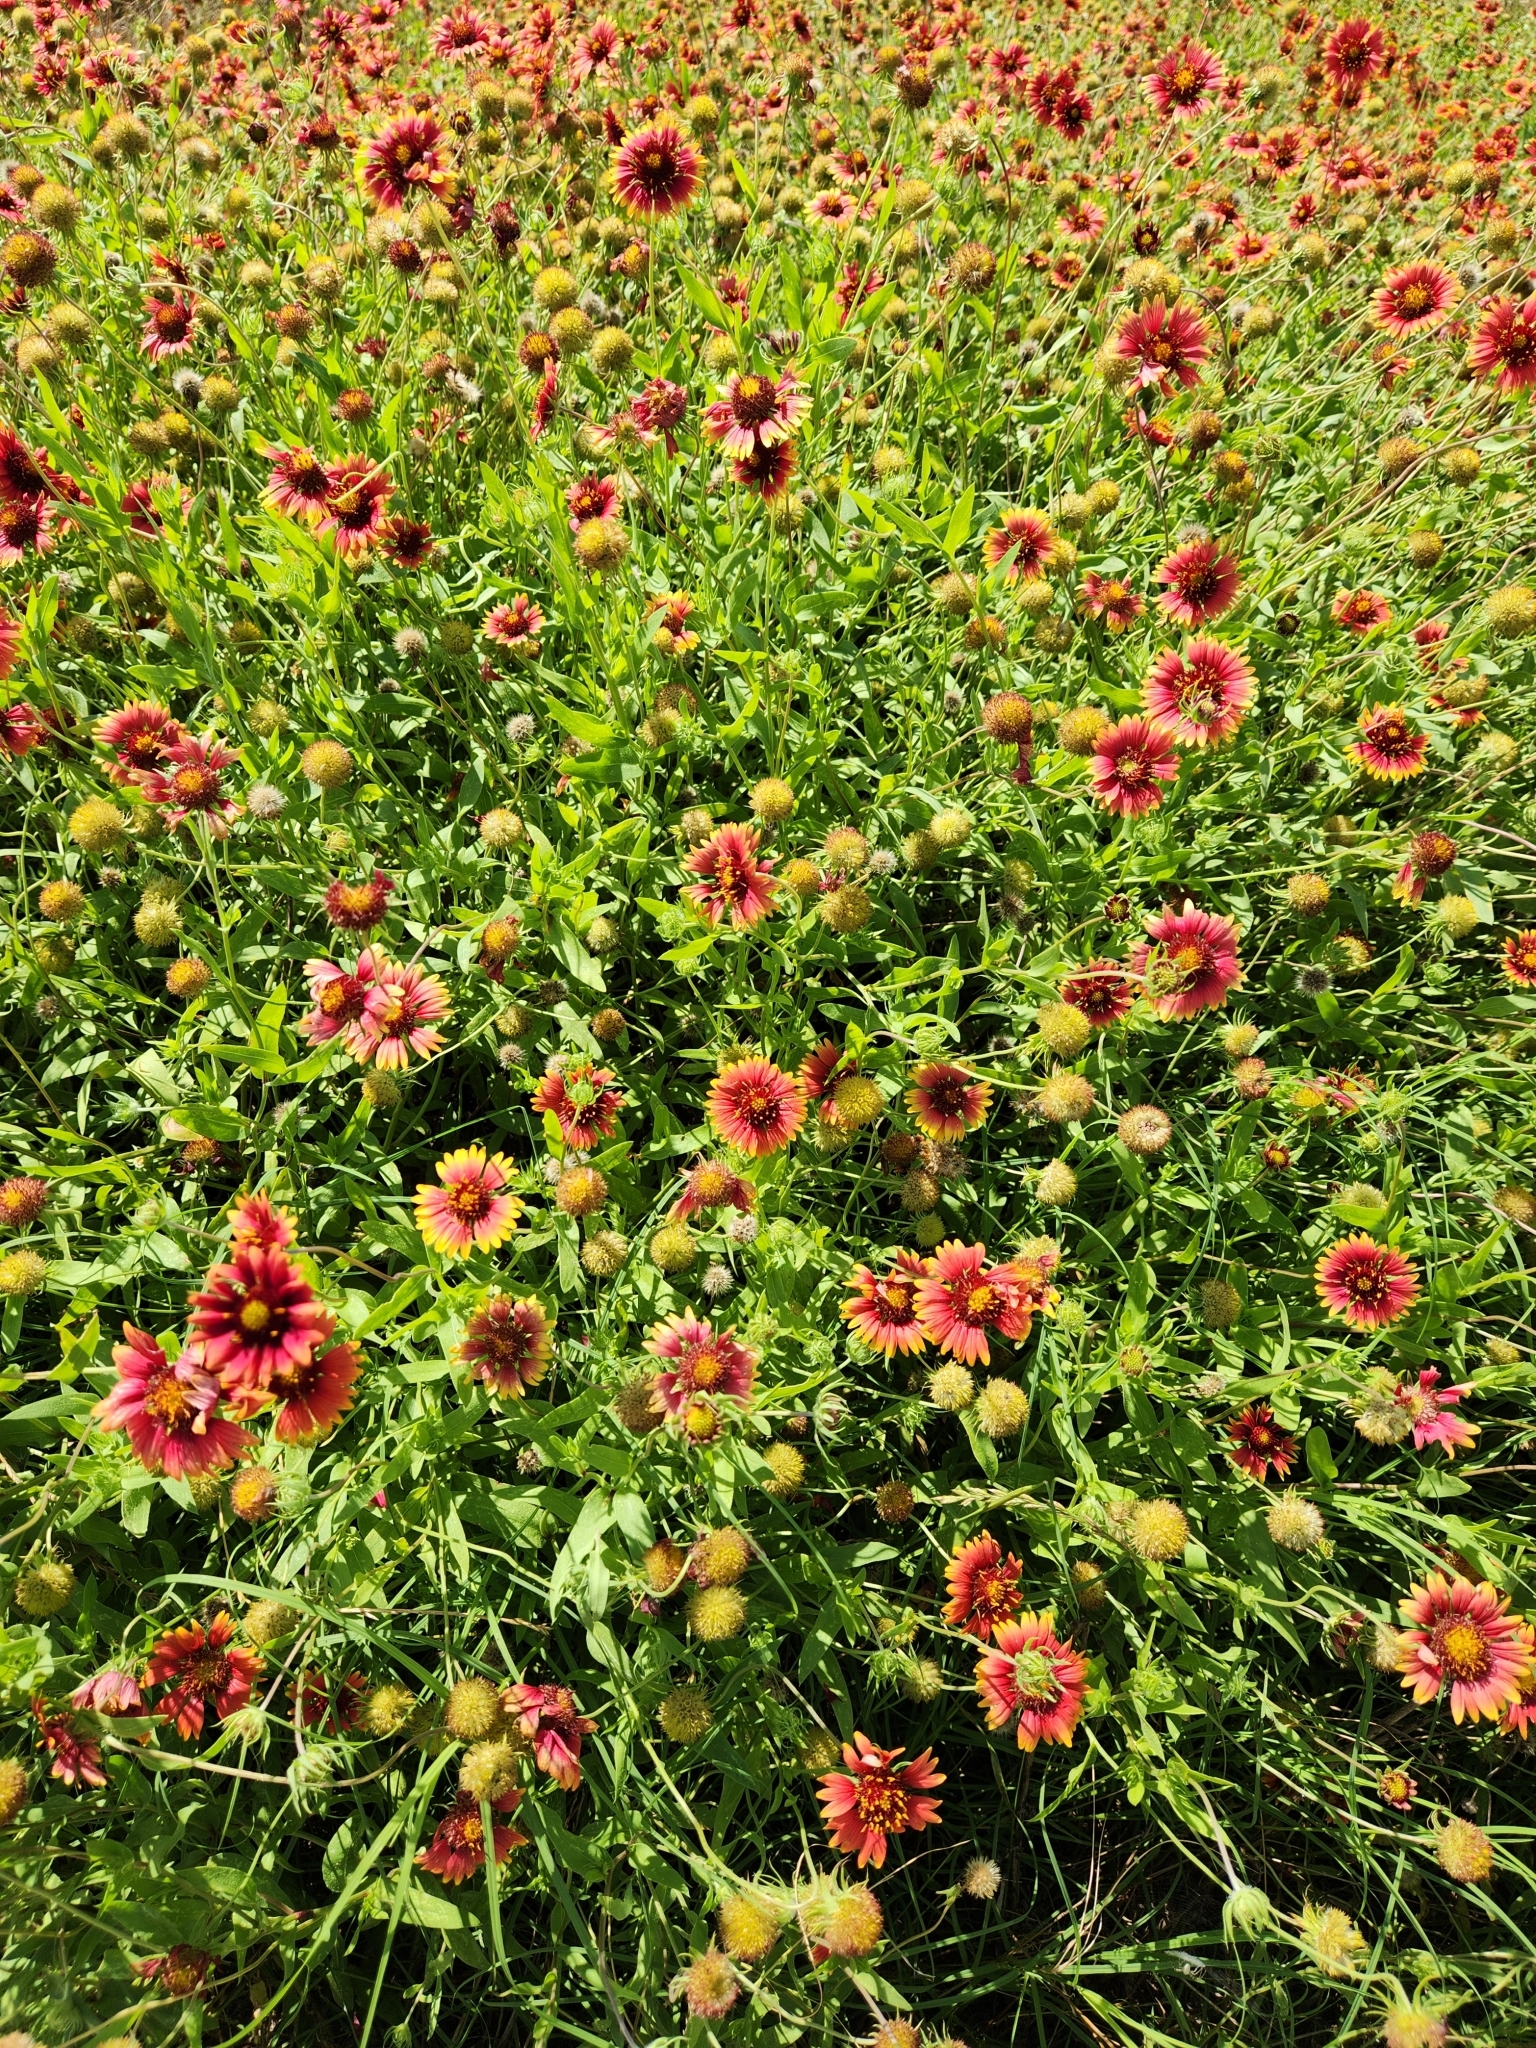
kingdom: Plantae
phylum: Tracheophyta
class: Magnoliopsida
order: Asterales
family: Asteraceae
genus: Gaillardia
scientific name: Gaillardia pulchella
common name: Firewheel
